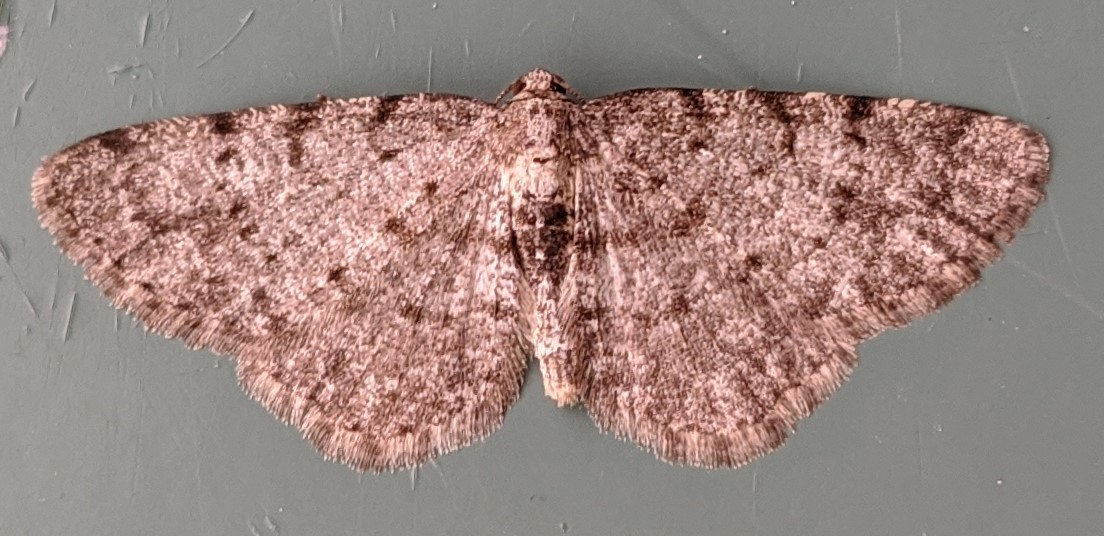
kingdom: Animalia
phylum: Arthropoda
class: Insecta
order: Lepidoptera
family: Geometridae
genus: Aethalura
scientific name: Aethalura intertexta
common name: Four-barred gray
